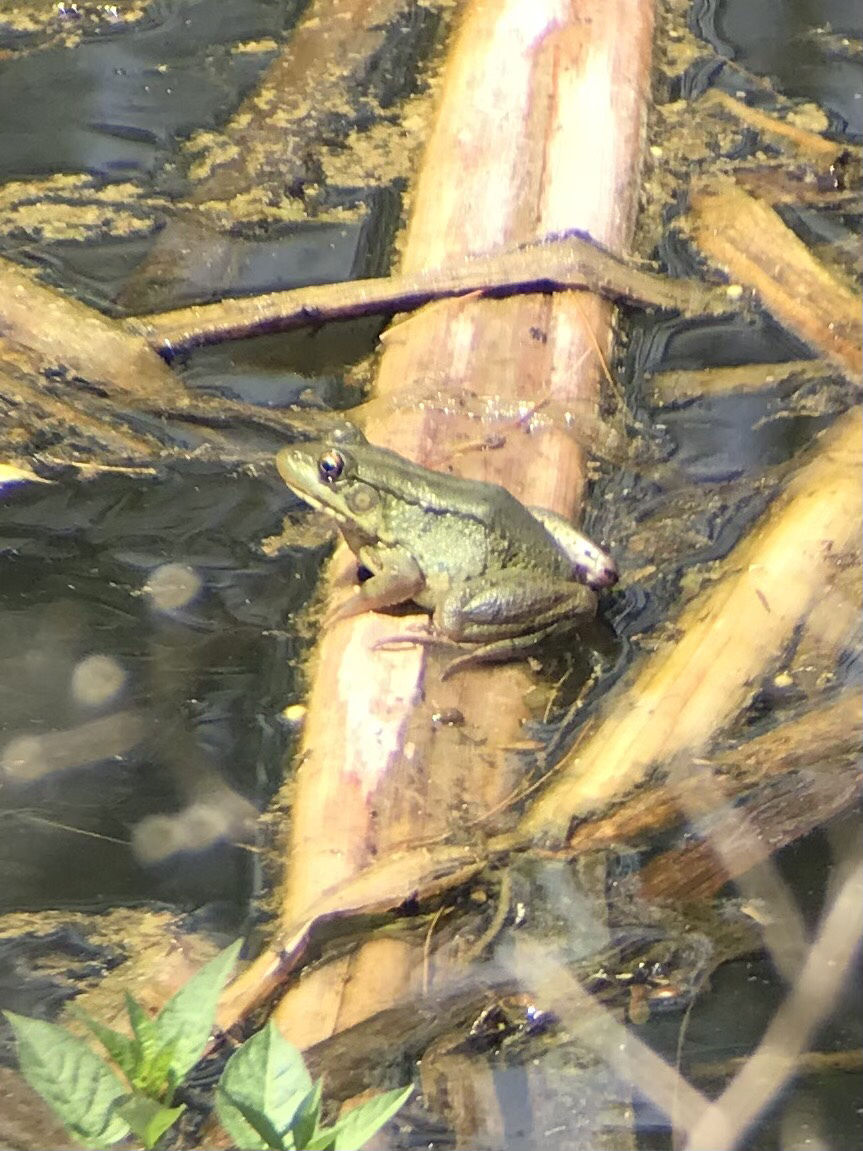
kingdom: Animalia
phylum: Chordata
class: Amphibia
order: Anura
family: Ranidae
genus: Lithobates
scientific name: Lithobates clamitans
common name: Green frog
